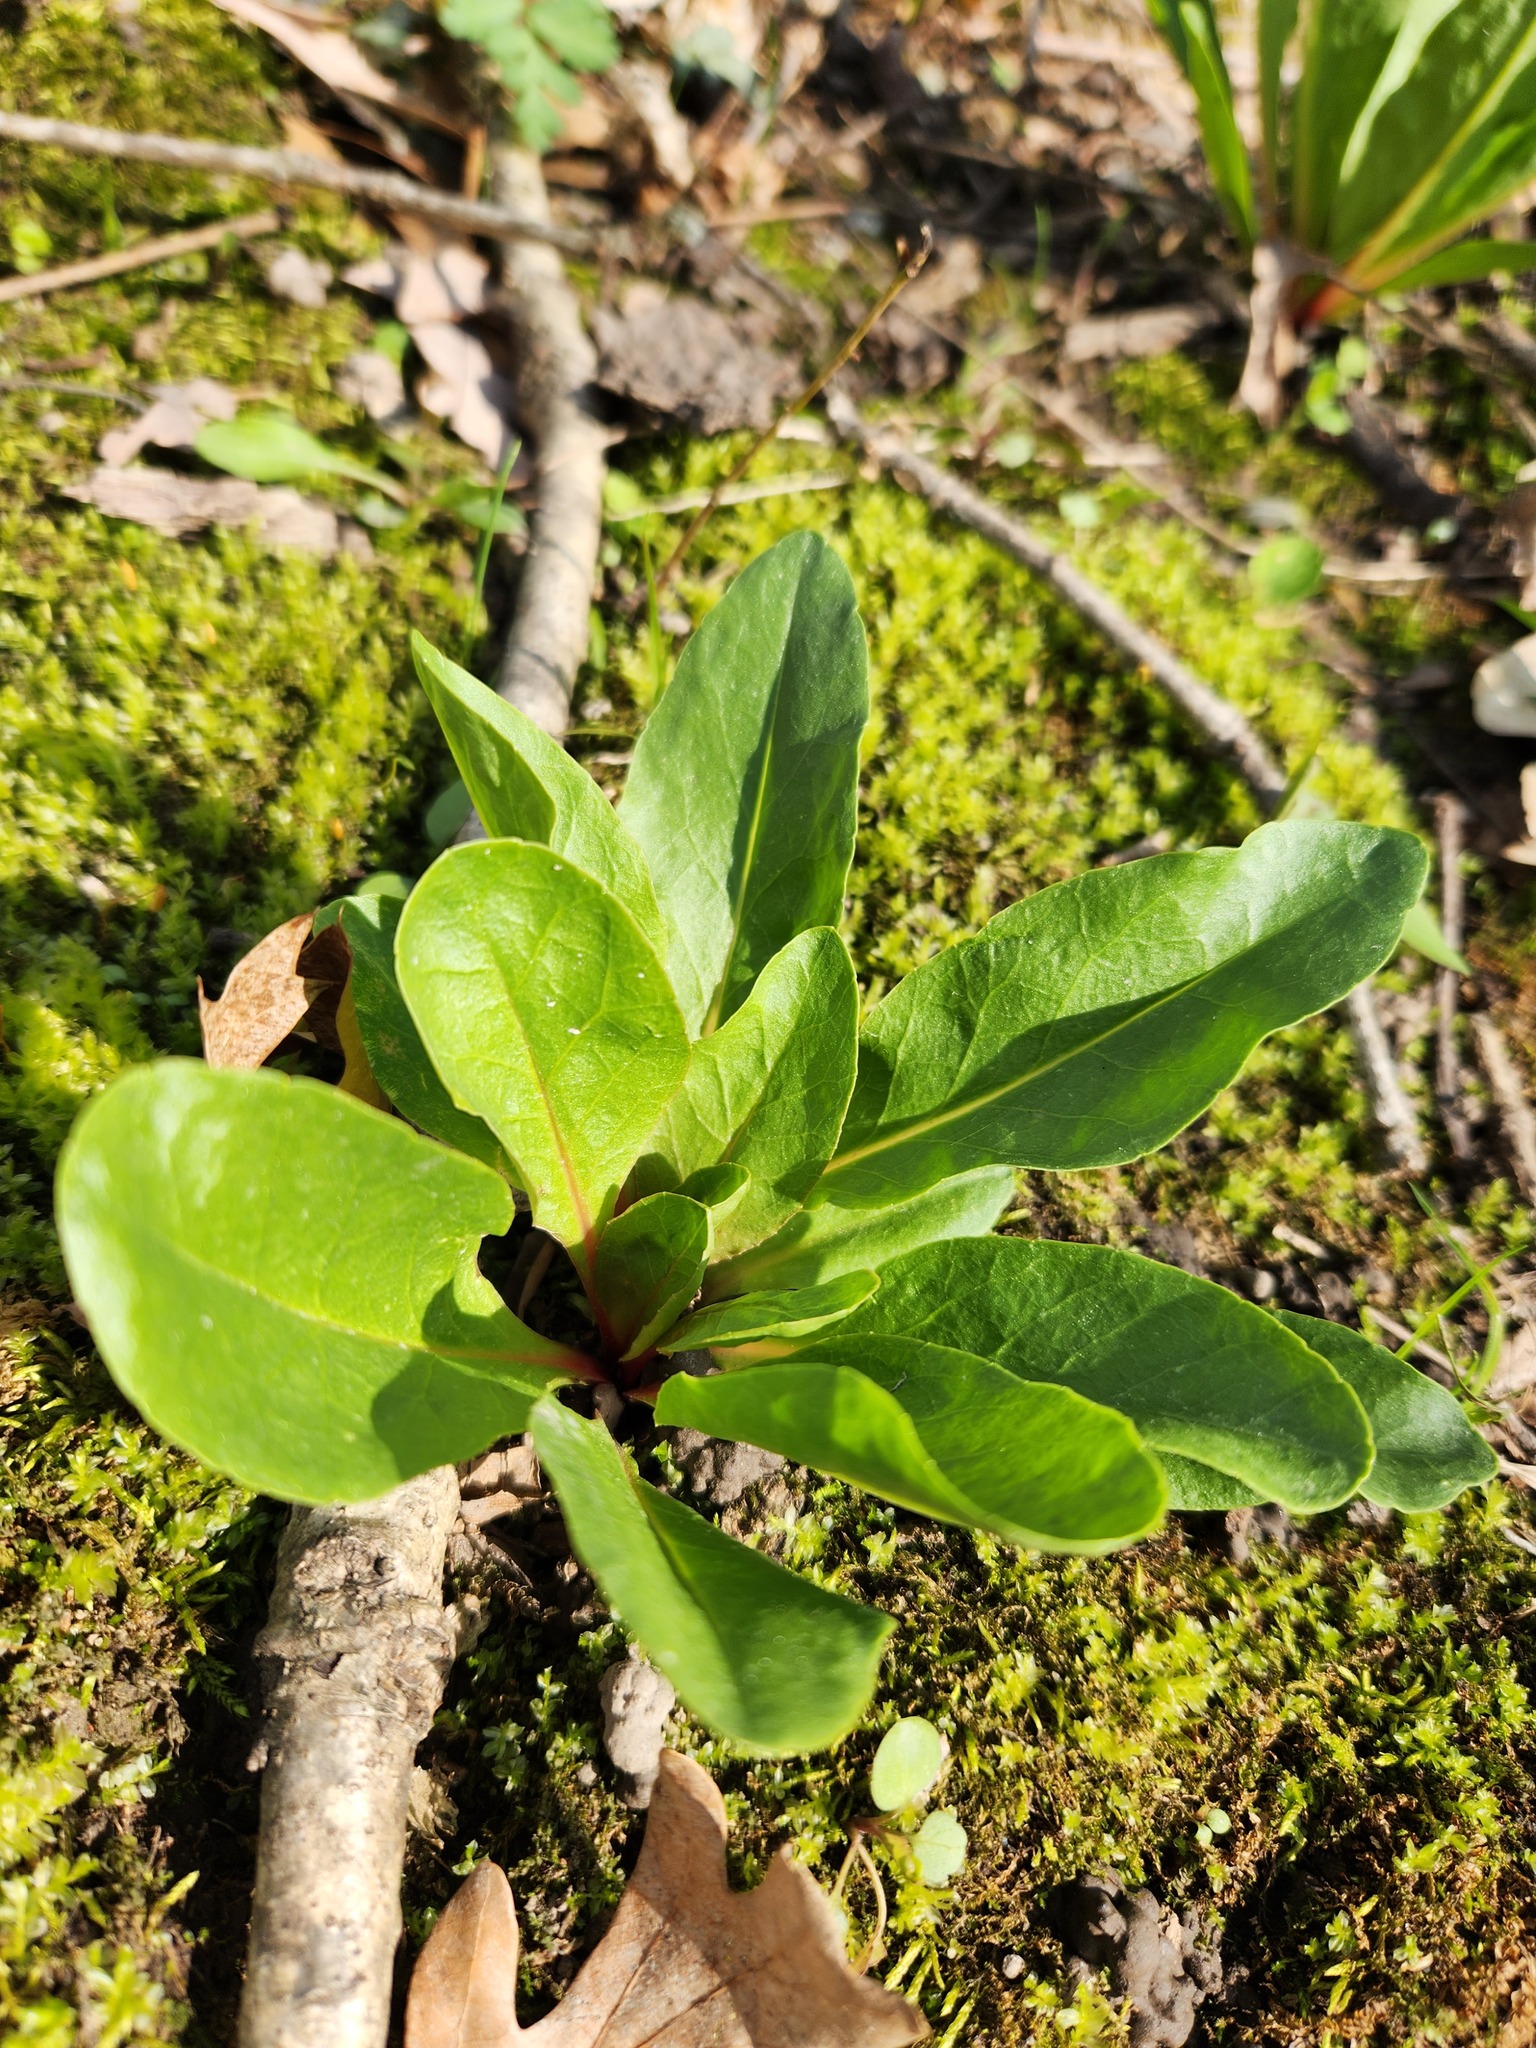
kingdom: Plantae
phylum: Tracheophyta
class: Magnoliopsida
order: Ericales
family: Primulaceae
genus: Dodecatheon
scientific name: Dodecatheon meadia
